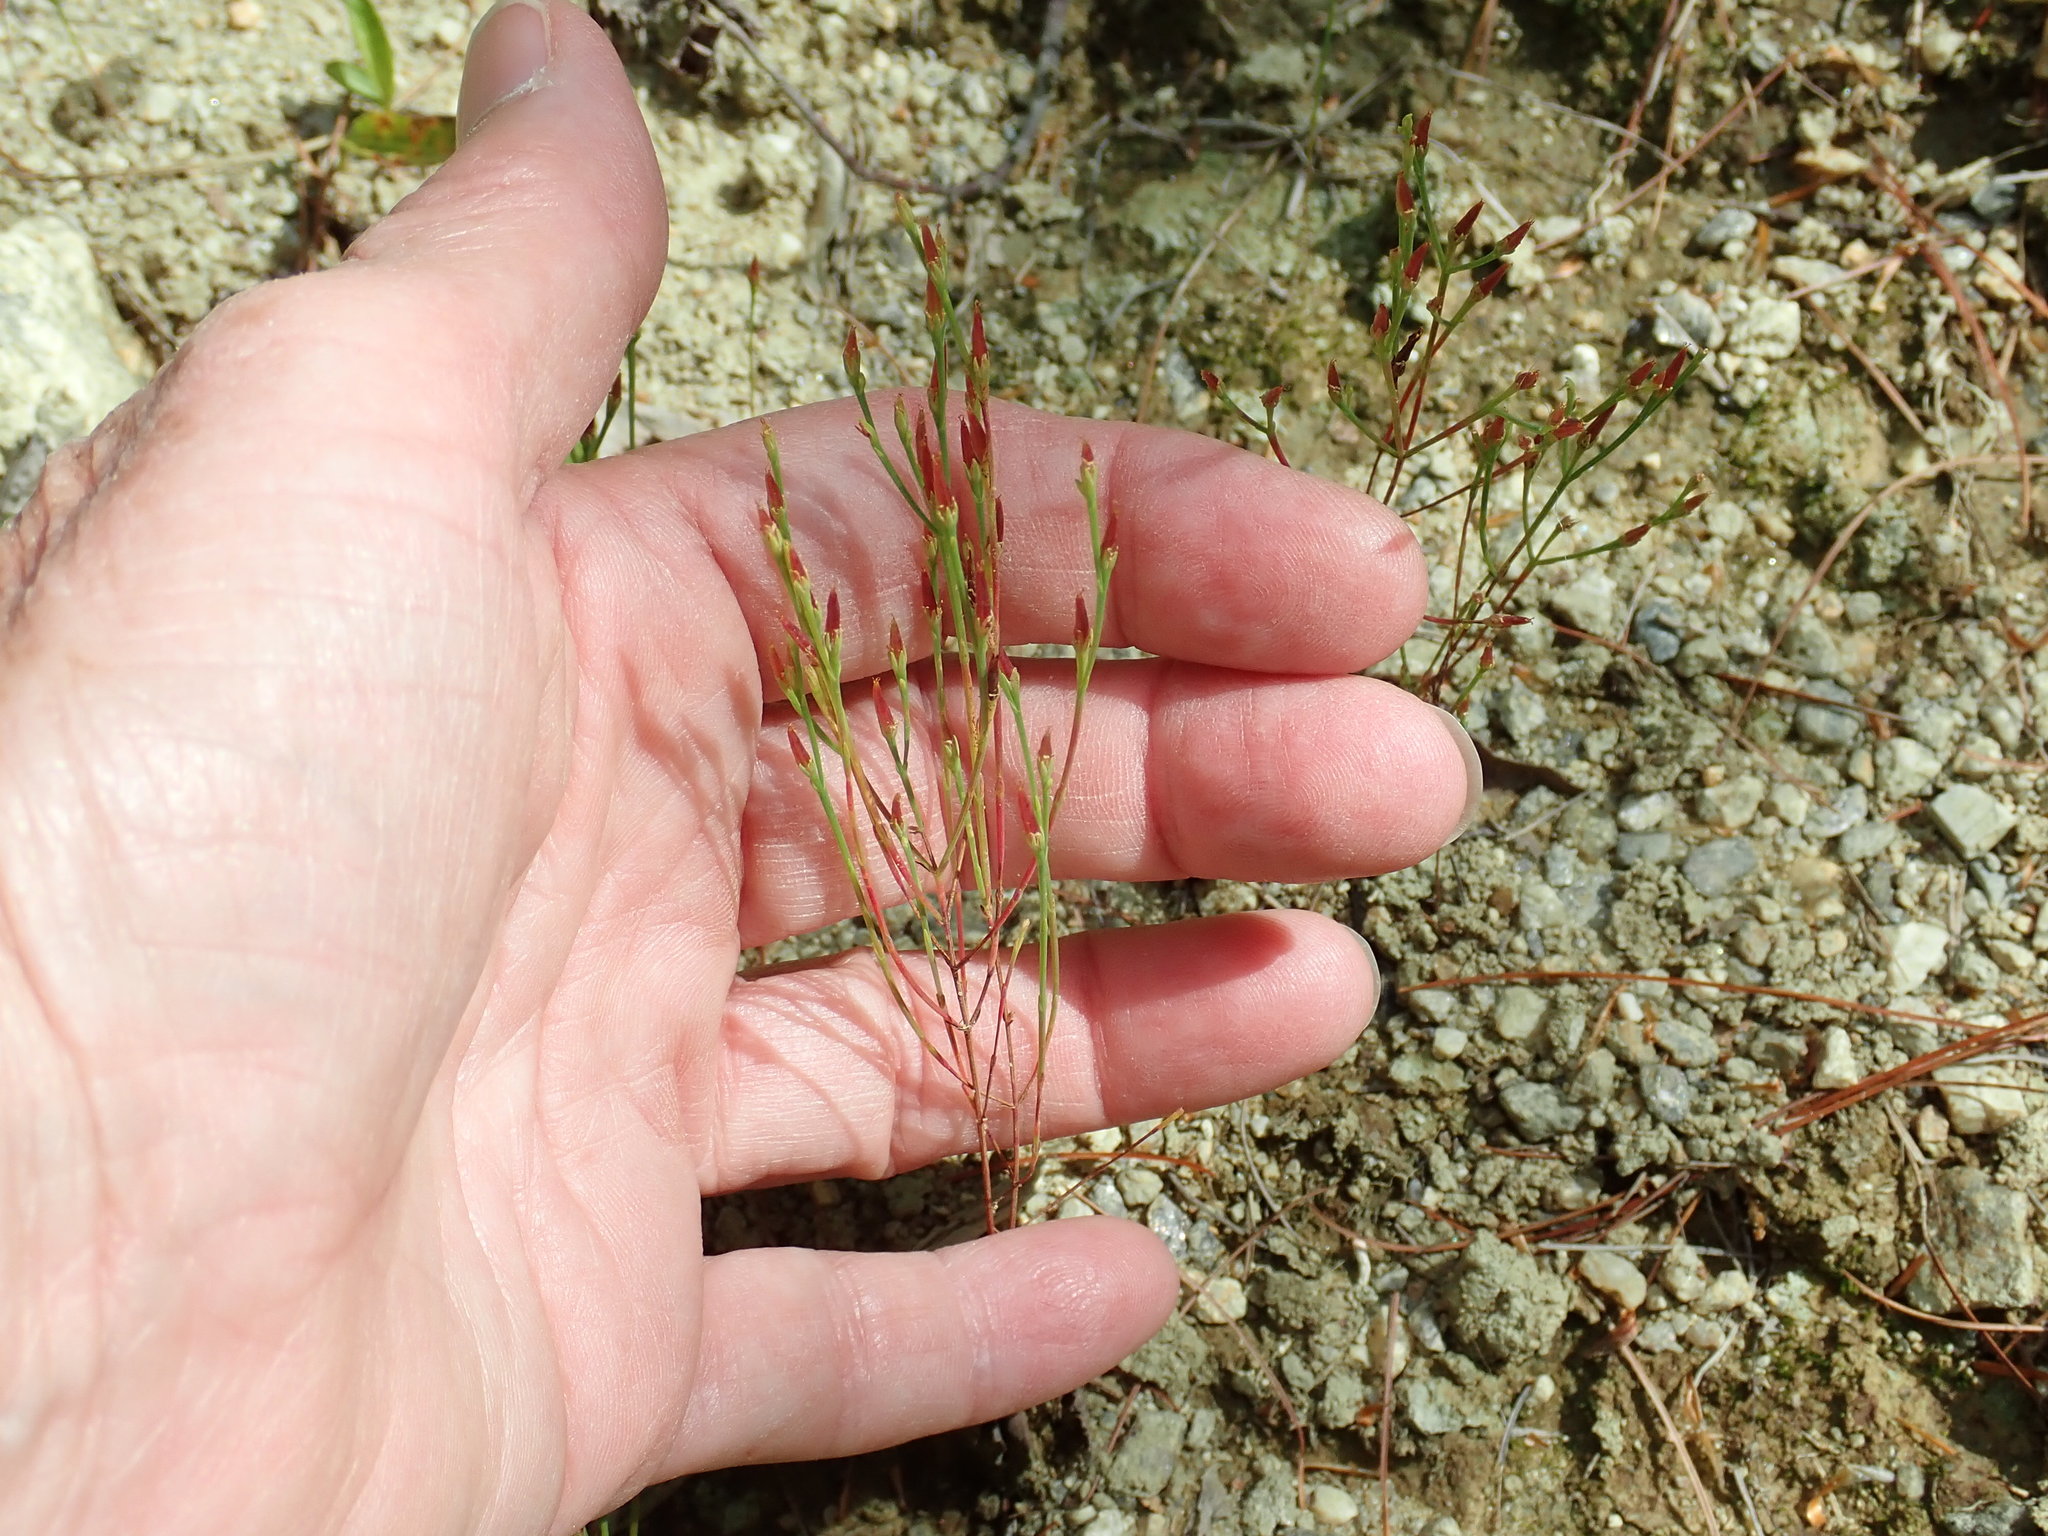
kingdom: Plantae
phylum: Tracheophyta
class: Magnoliopsida
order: Malpighiales
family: Hypericaceae
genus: Hypericum
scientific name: Hypericum gentianoides
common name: Gentian-leaved st. john's-wort
